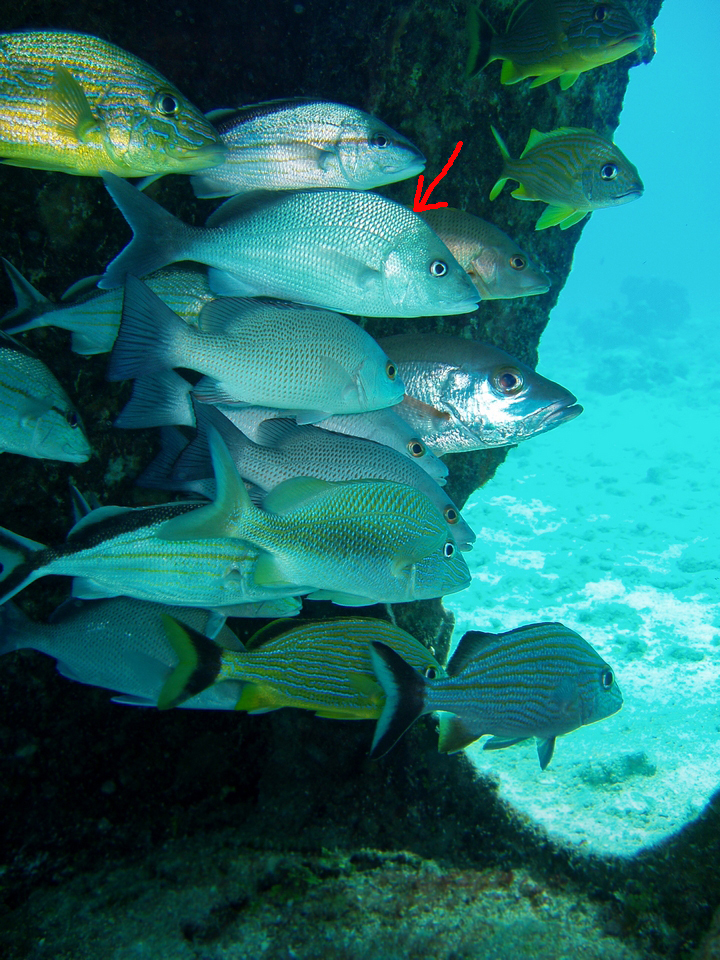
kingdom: Animalia
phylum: Chordata
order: Perciformes
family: Haemulidae
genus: Haemulon
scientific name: Haemulon album
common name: Margate
